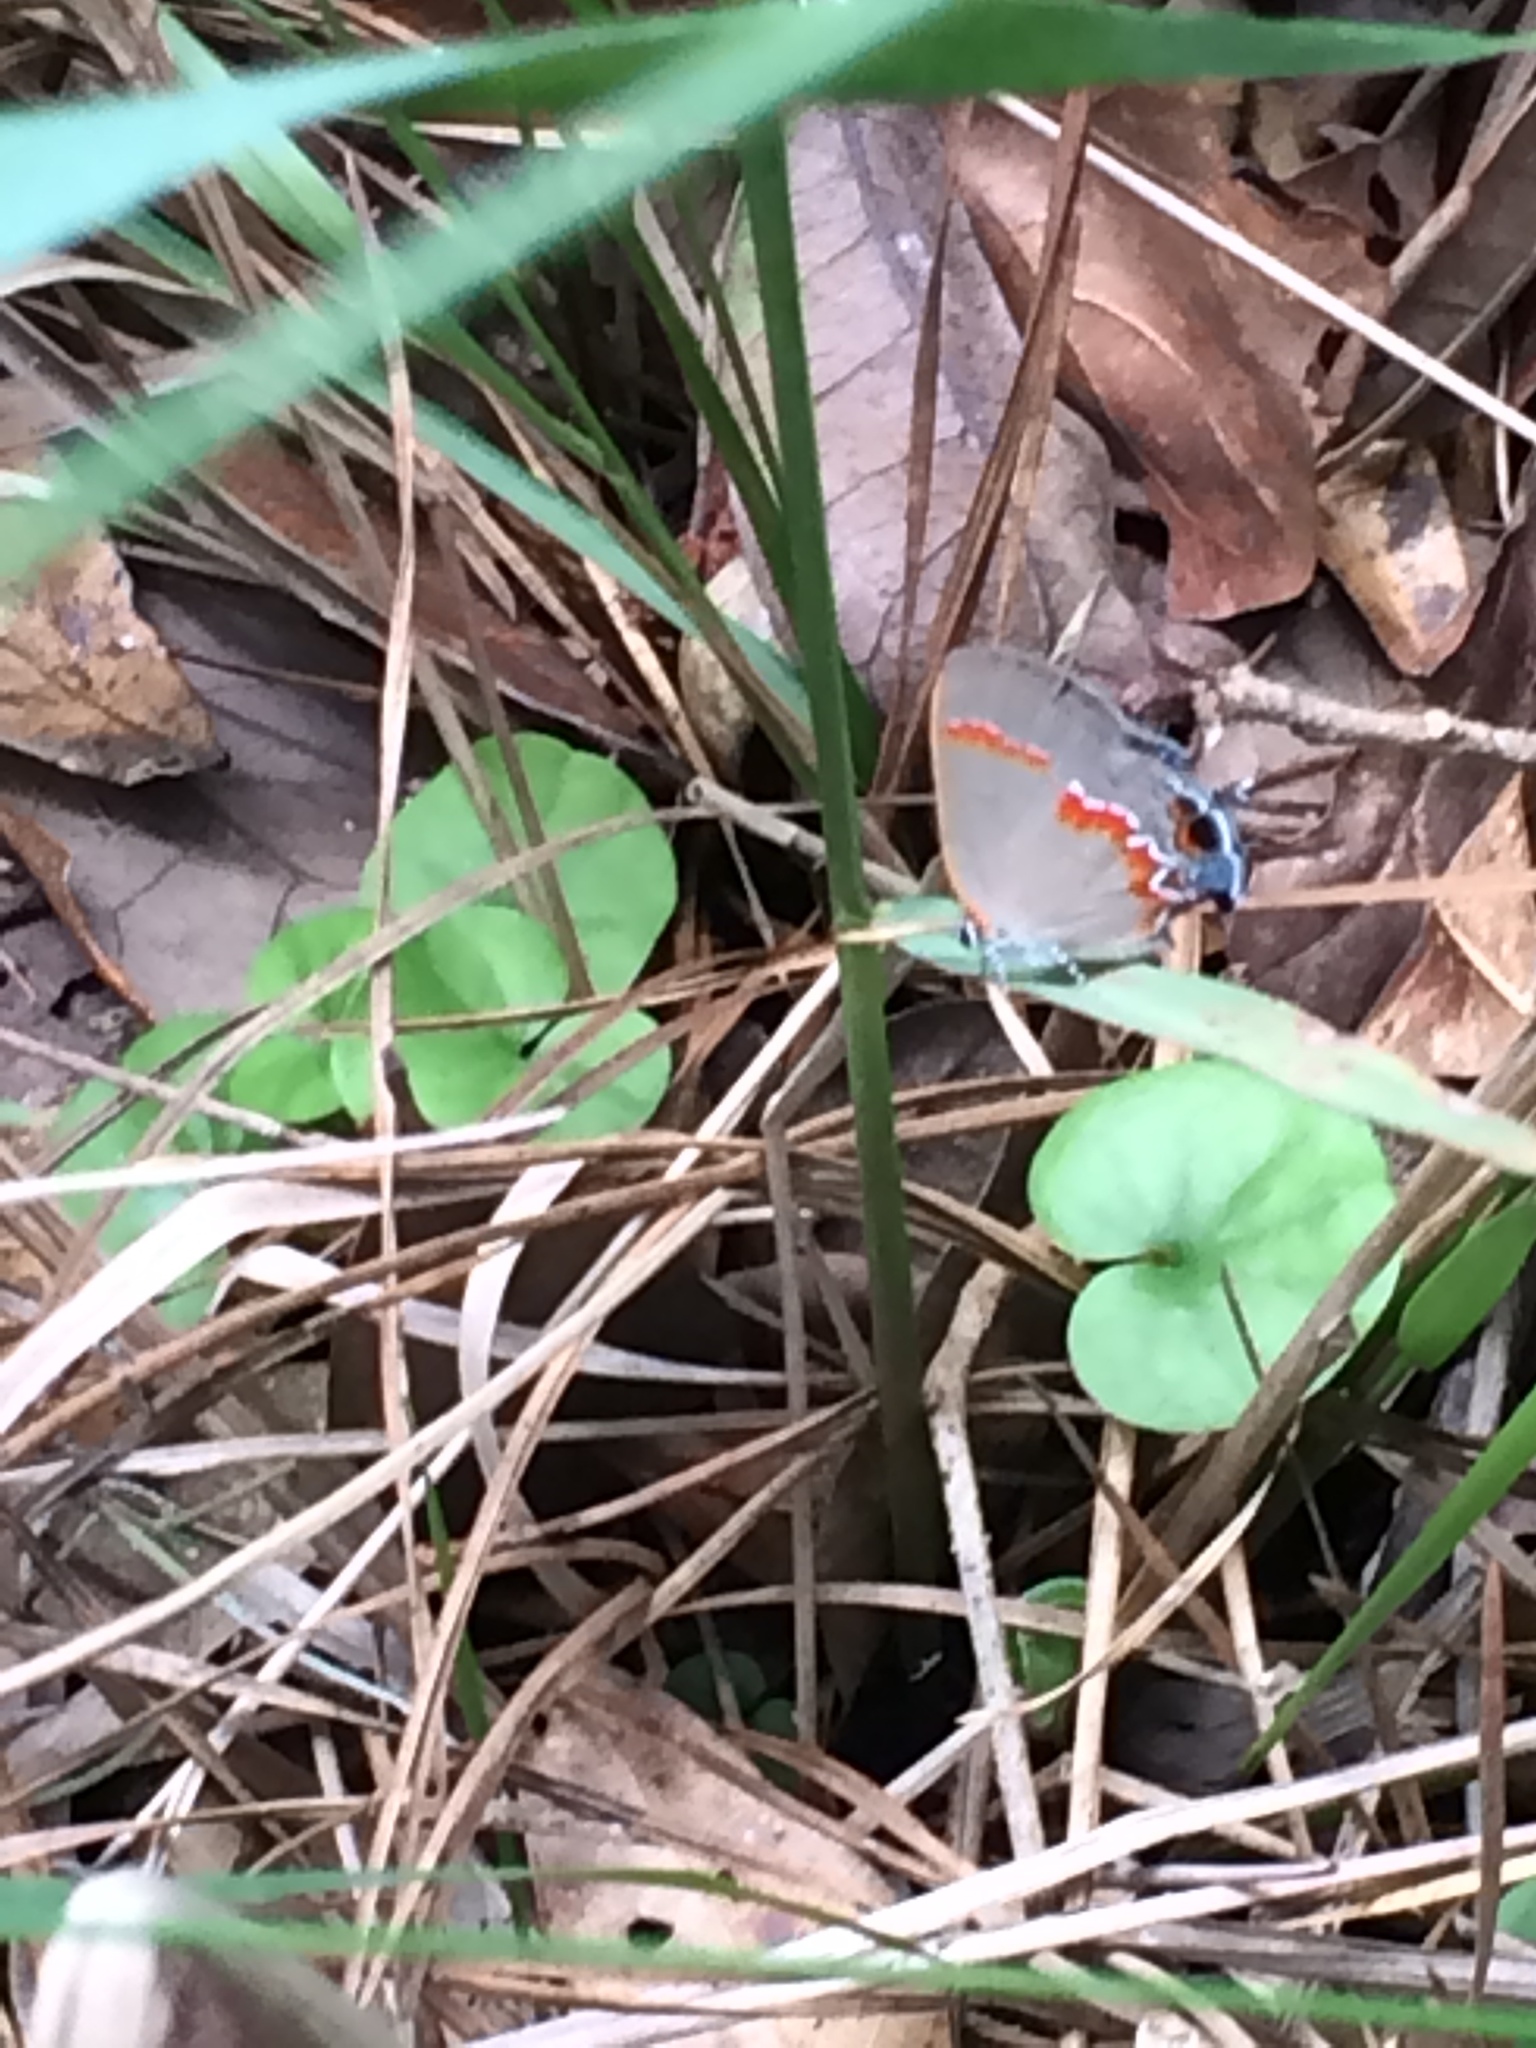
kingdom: Animalia
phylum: Arthropoda
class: Insecta
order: Lepidoptera
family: Lycaenidae
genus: Calycopis
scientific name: Calycopis cecrops
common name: Red-banded hairstreak
